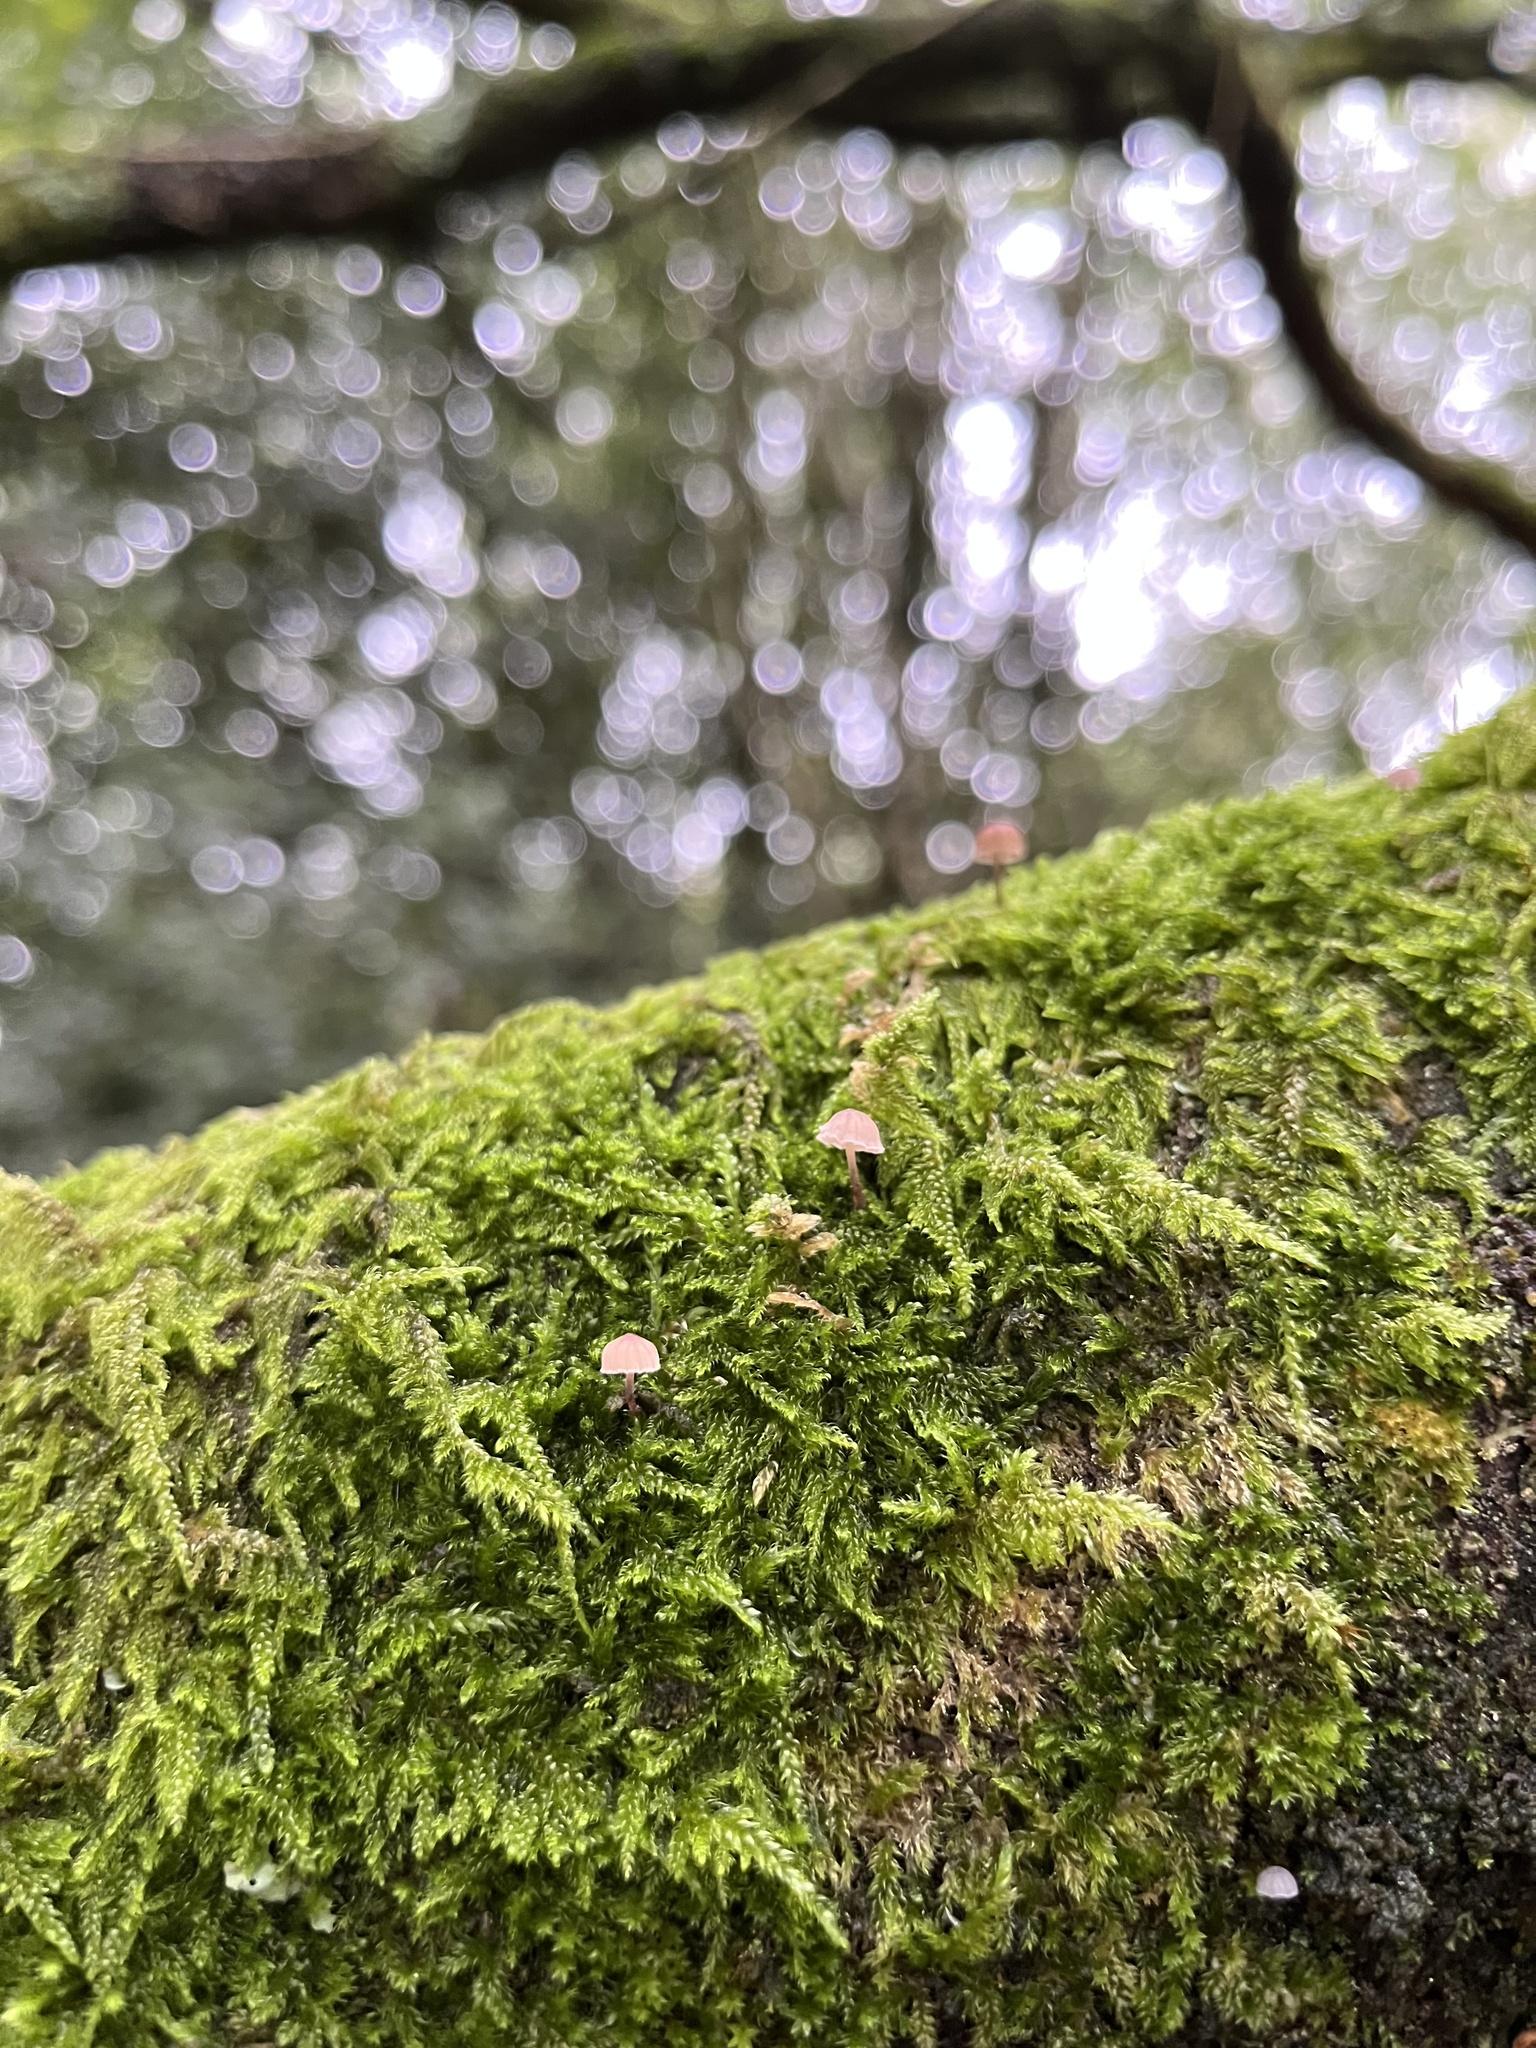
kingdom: Fungi
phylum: Basidiomycota
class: Agaricomycetes
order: Agaricales
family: Mycenaceae
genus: Mycena
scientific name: Mycena corticola
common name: Bark mycena
